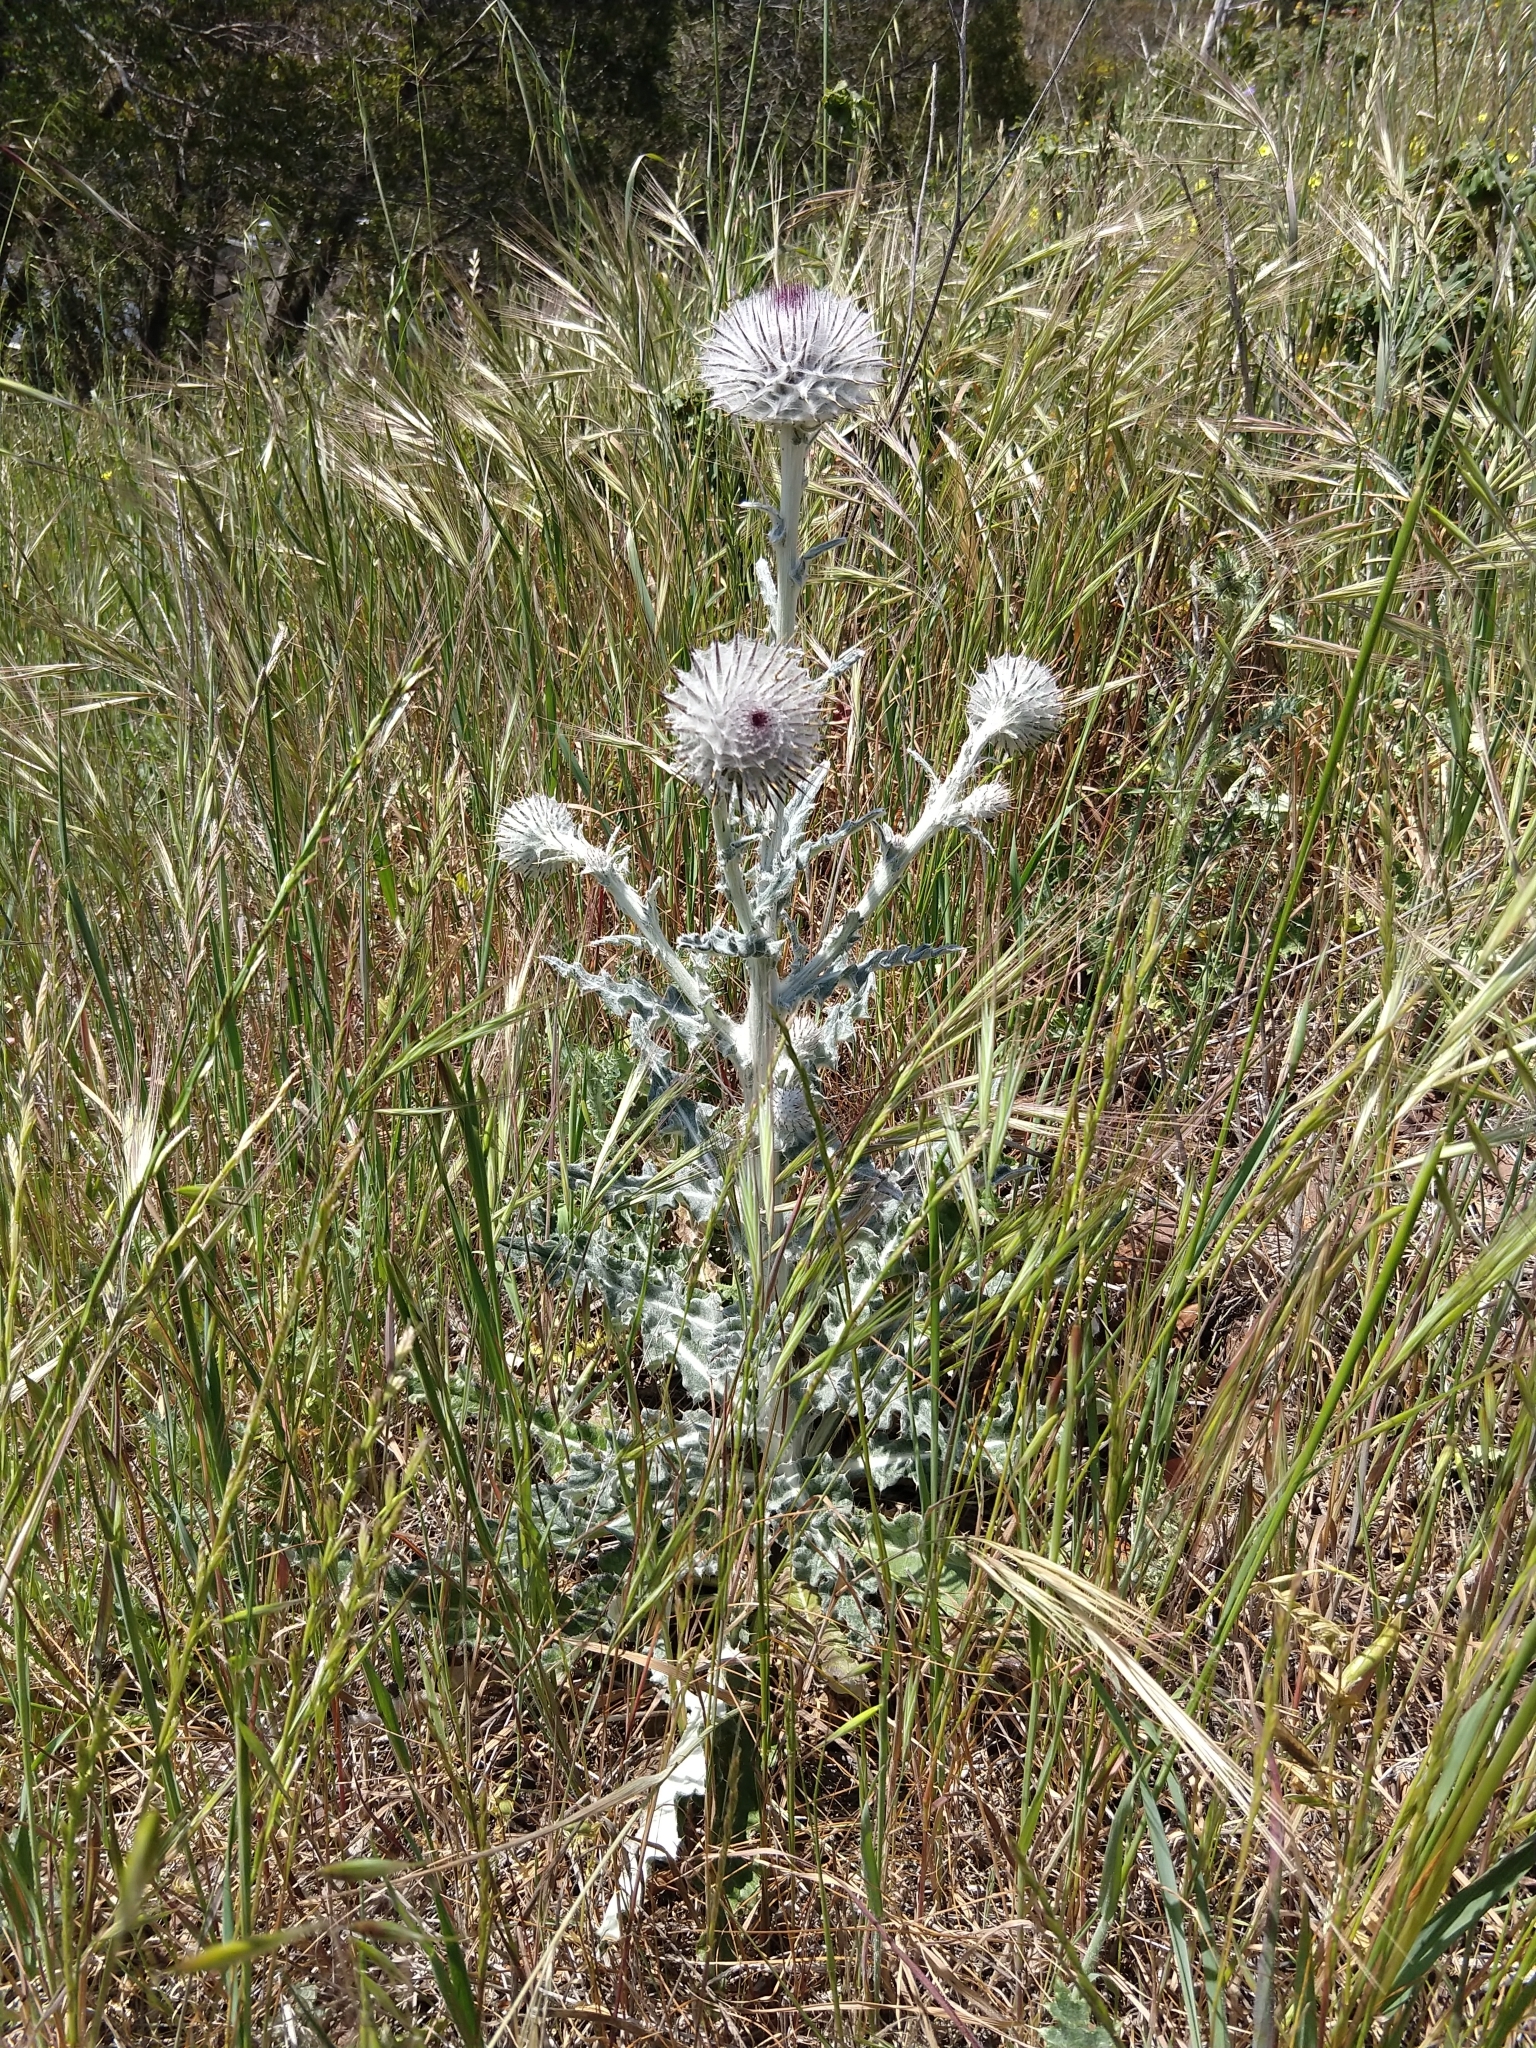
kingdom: Plantae
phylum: Tracheophyta
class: Magnoliopsida
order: Asterales
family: Asteraceae
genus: Cirsium
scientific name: Cirsium occidentale
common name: Western thistle
